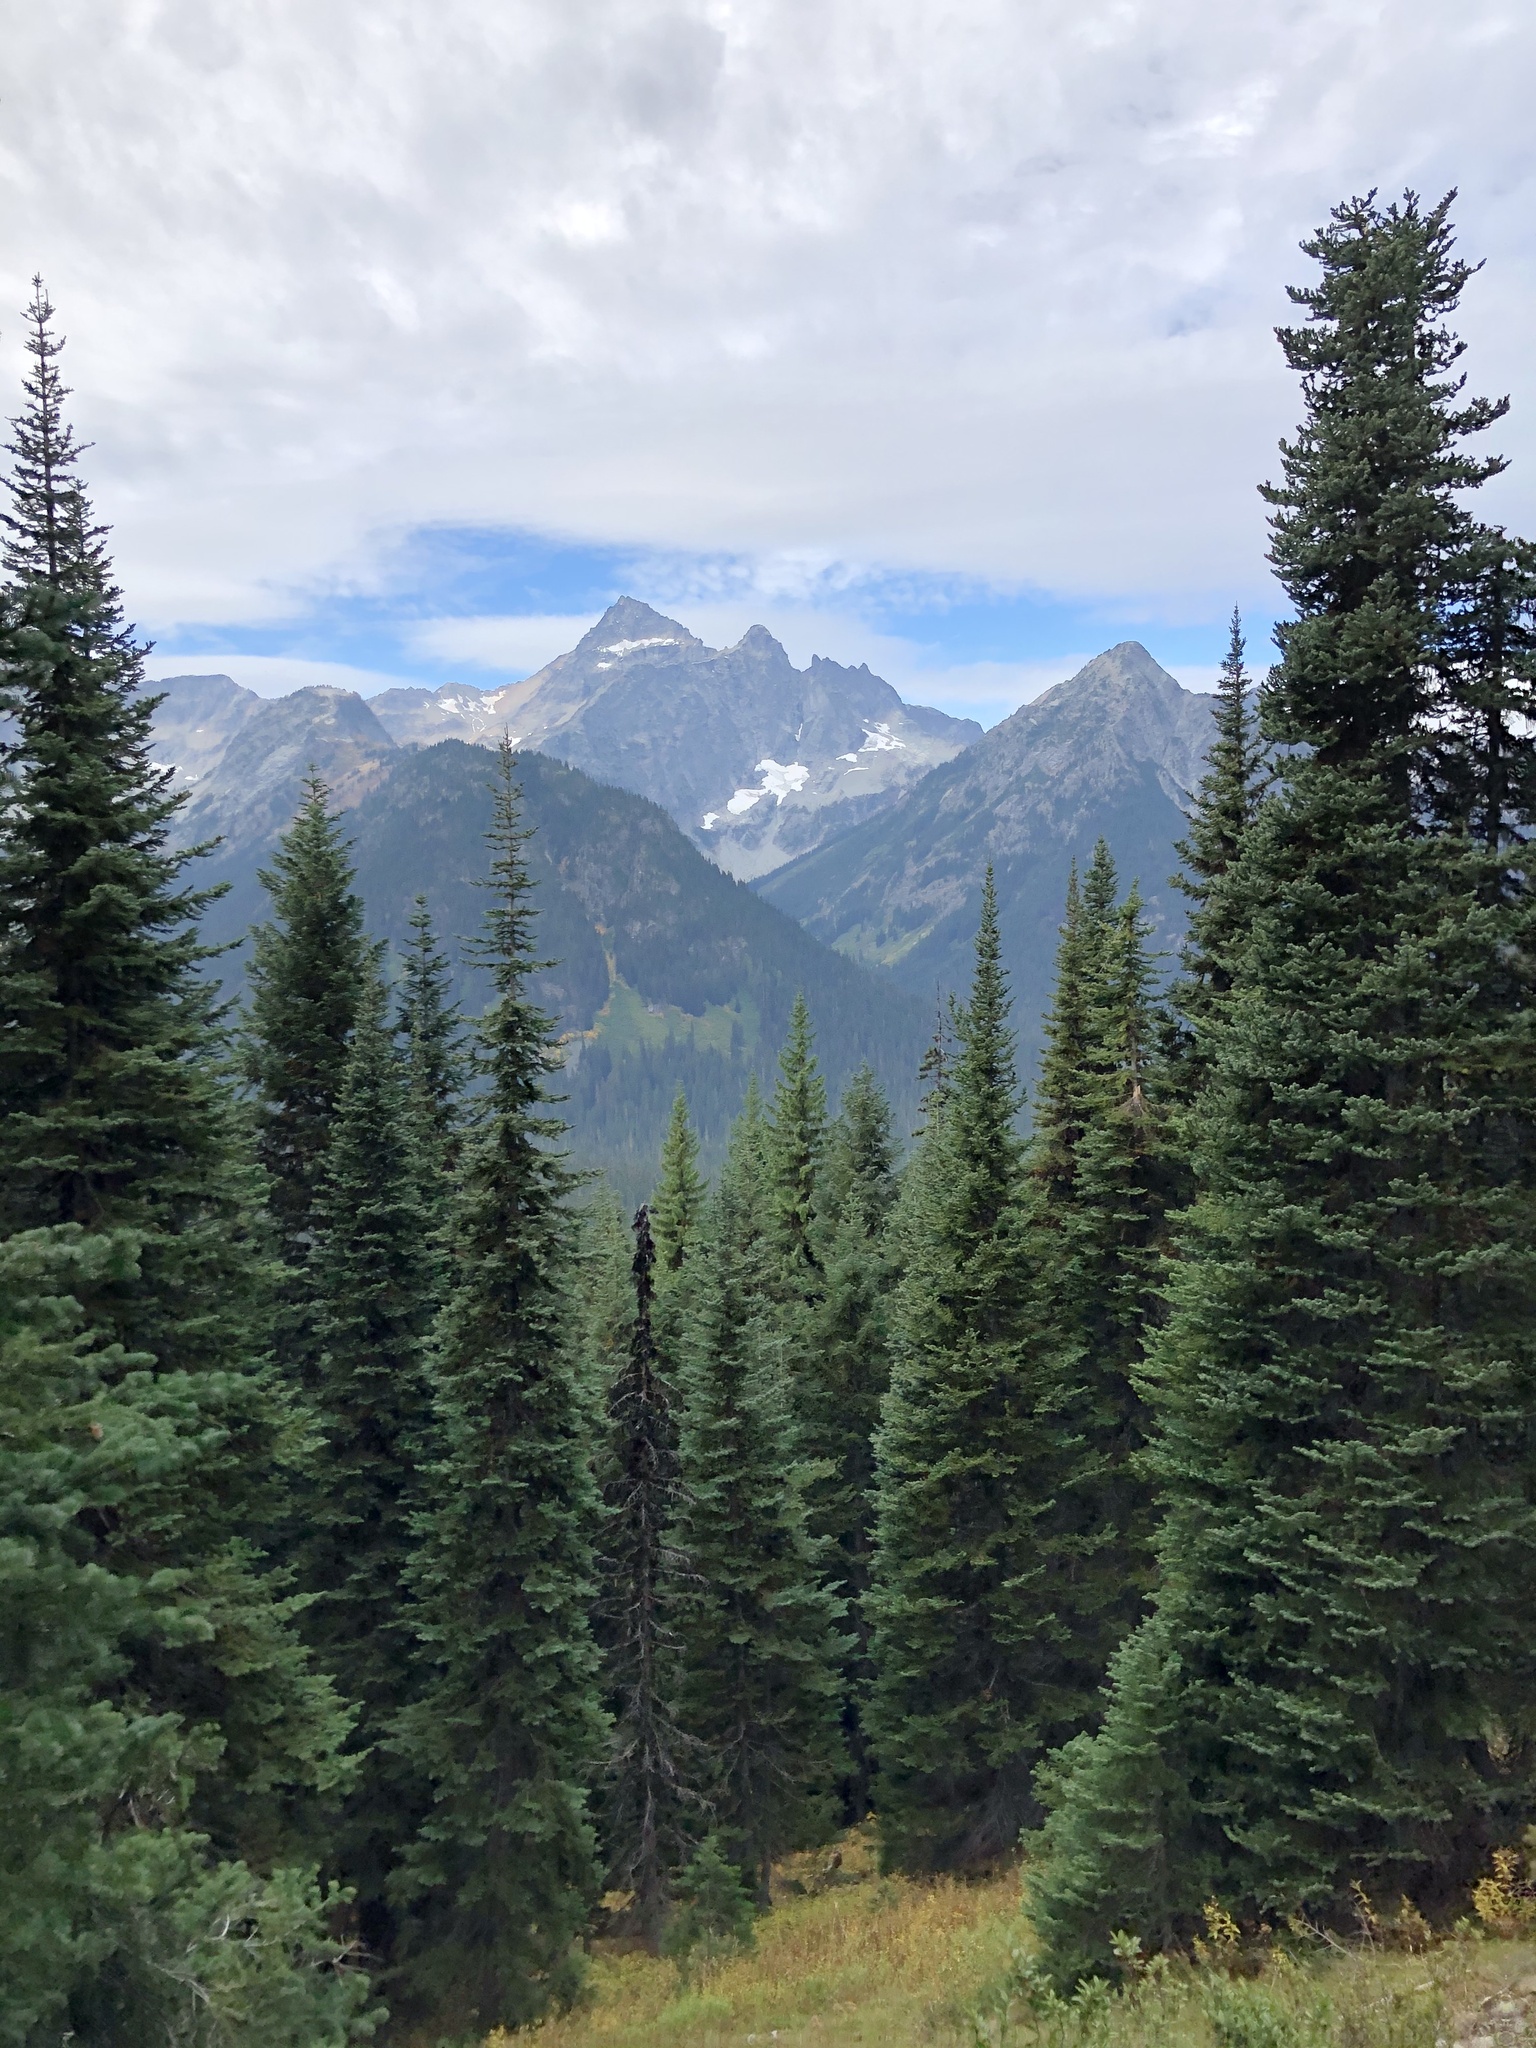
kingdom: Plantae
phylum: Tracheophyta
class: Pinopsida
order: Pinales
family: Pinaceae
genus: Abies
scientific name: Abies lasiocarpa
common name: Subalpine fir
